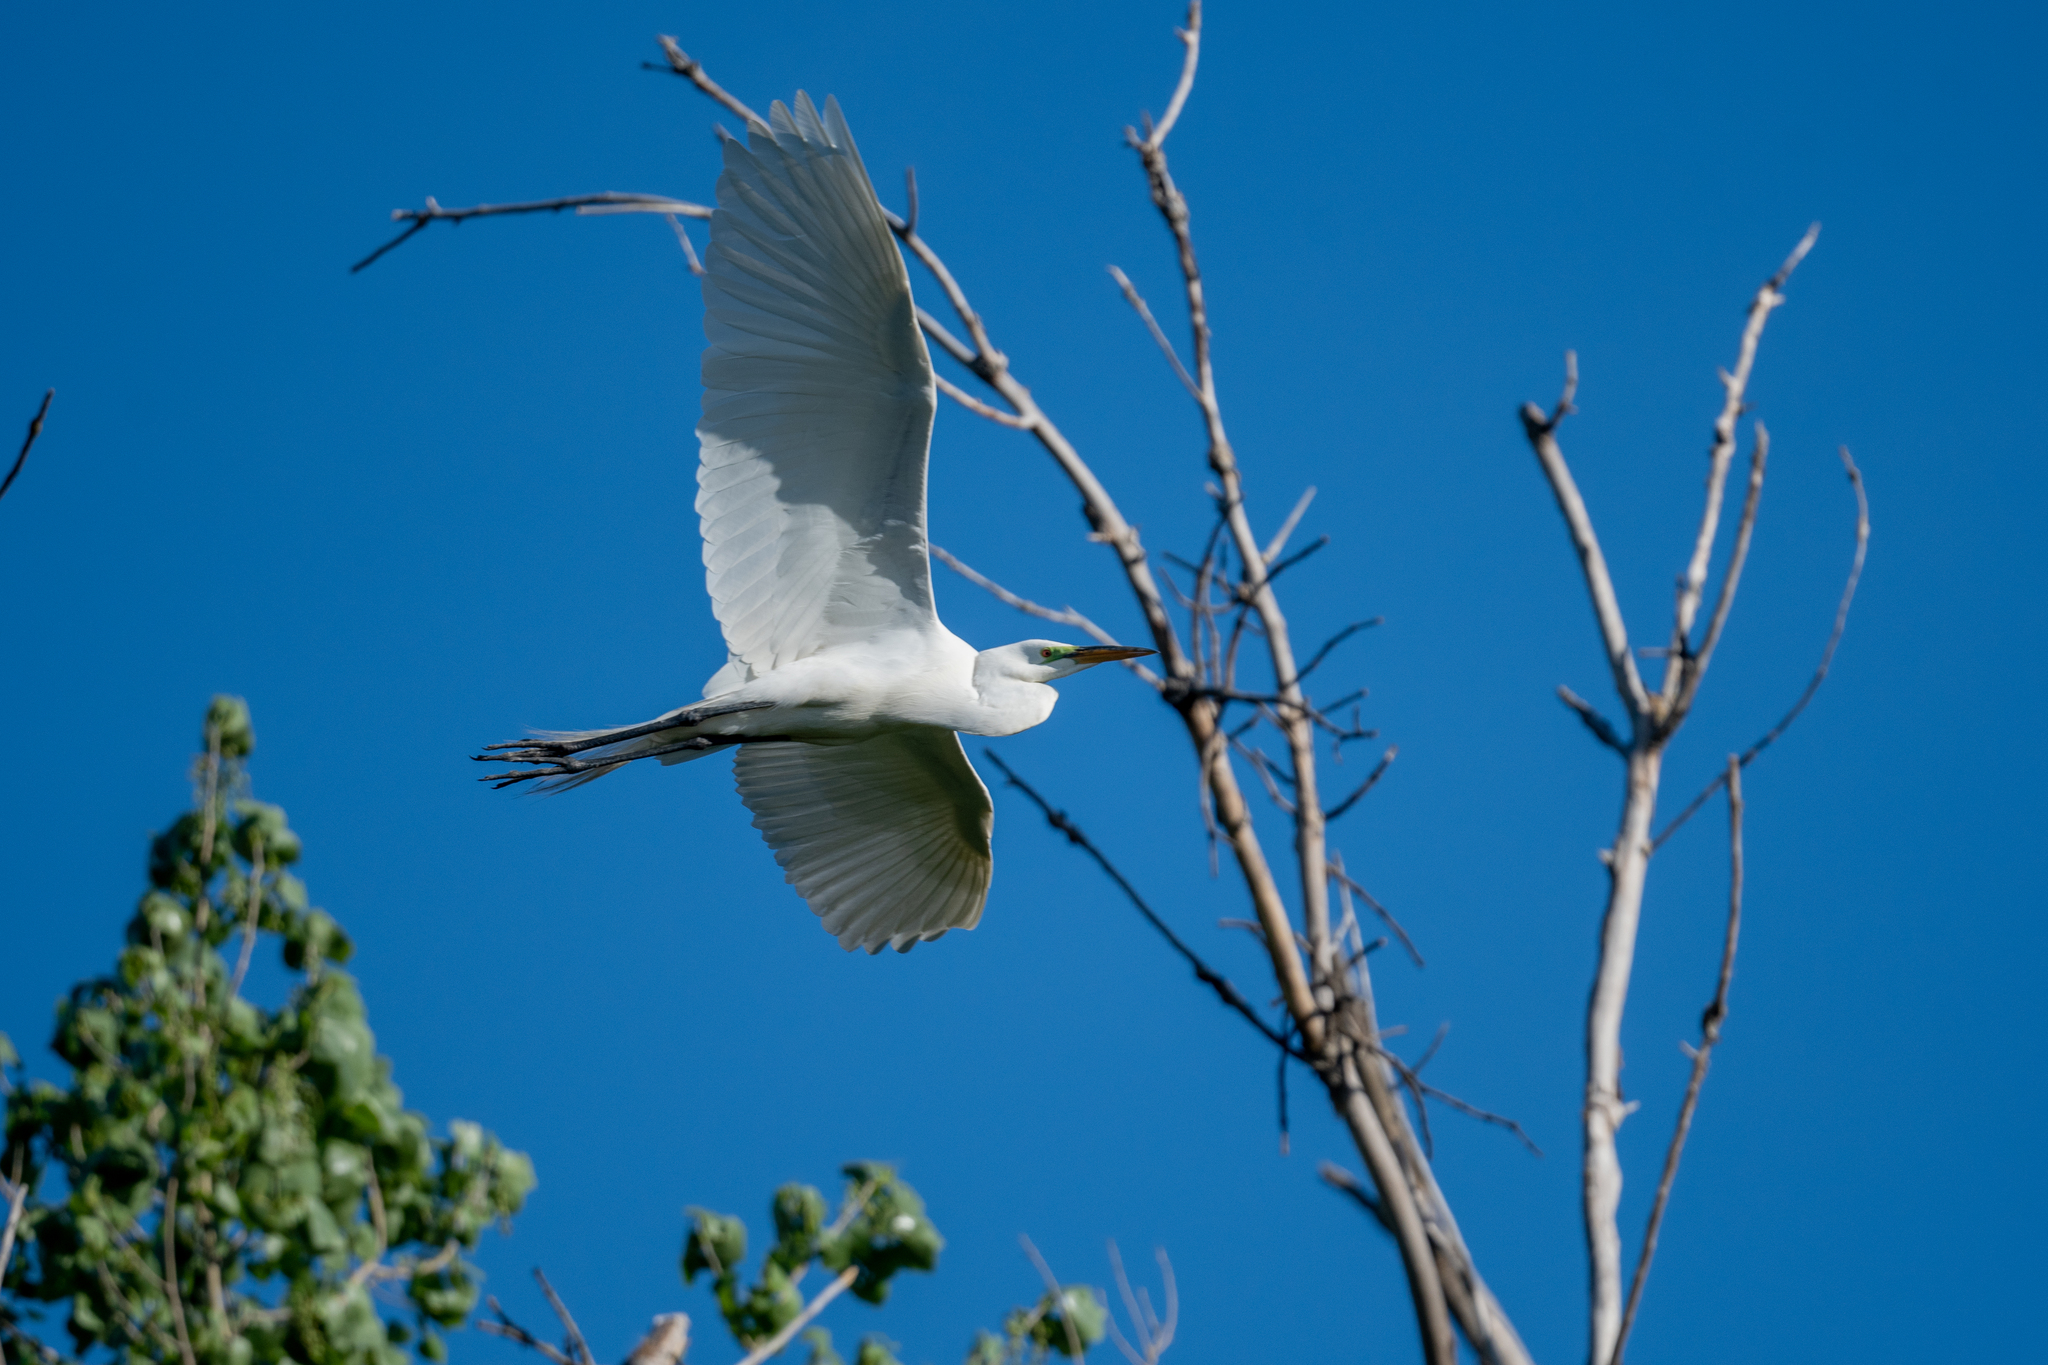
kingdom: Animalia
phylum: Chordata
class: Aves
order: Pelecaniformes
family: Ardeidae
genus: Ardea
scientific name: Ardea alba
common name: Great egret
